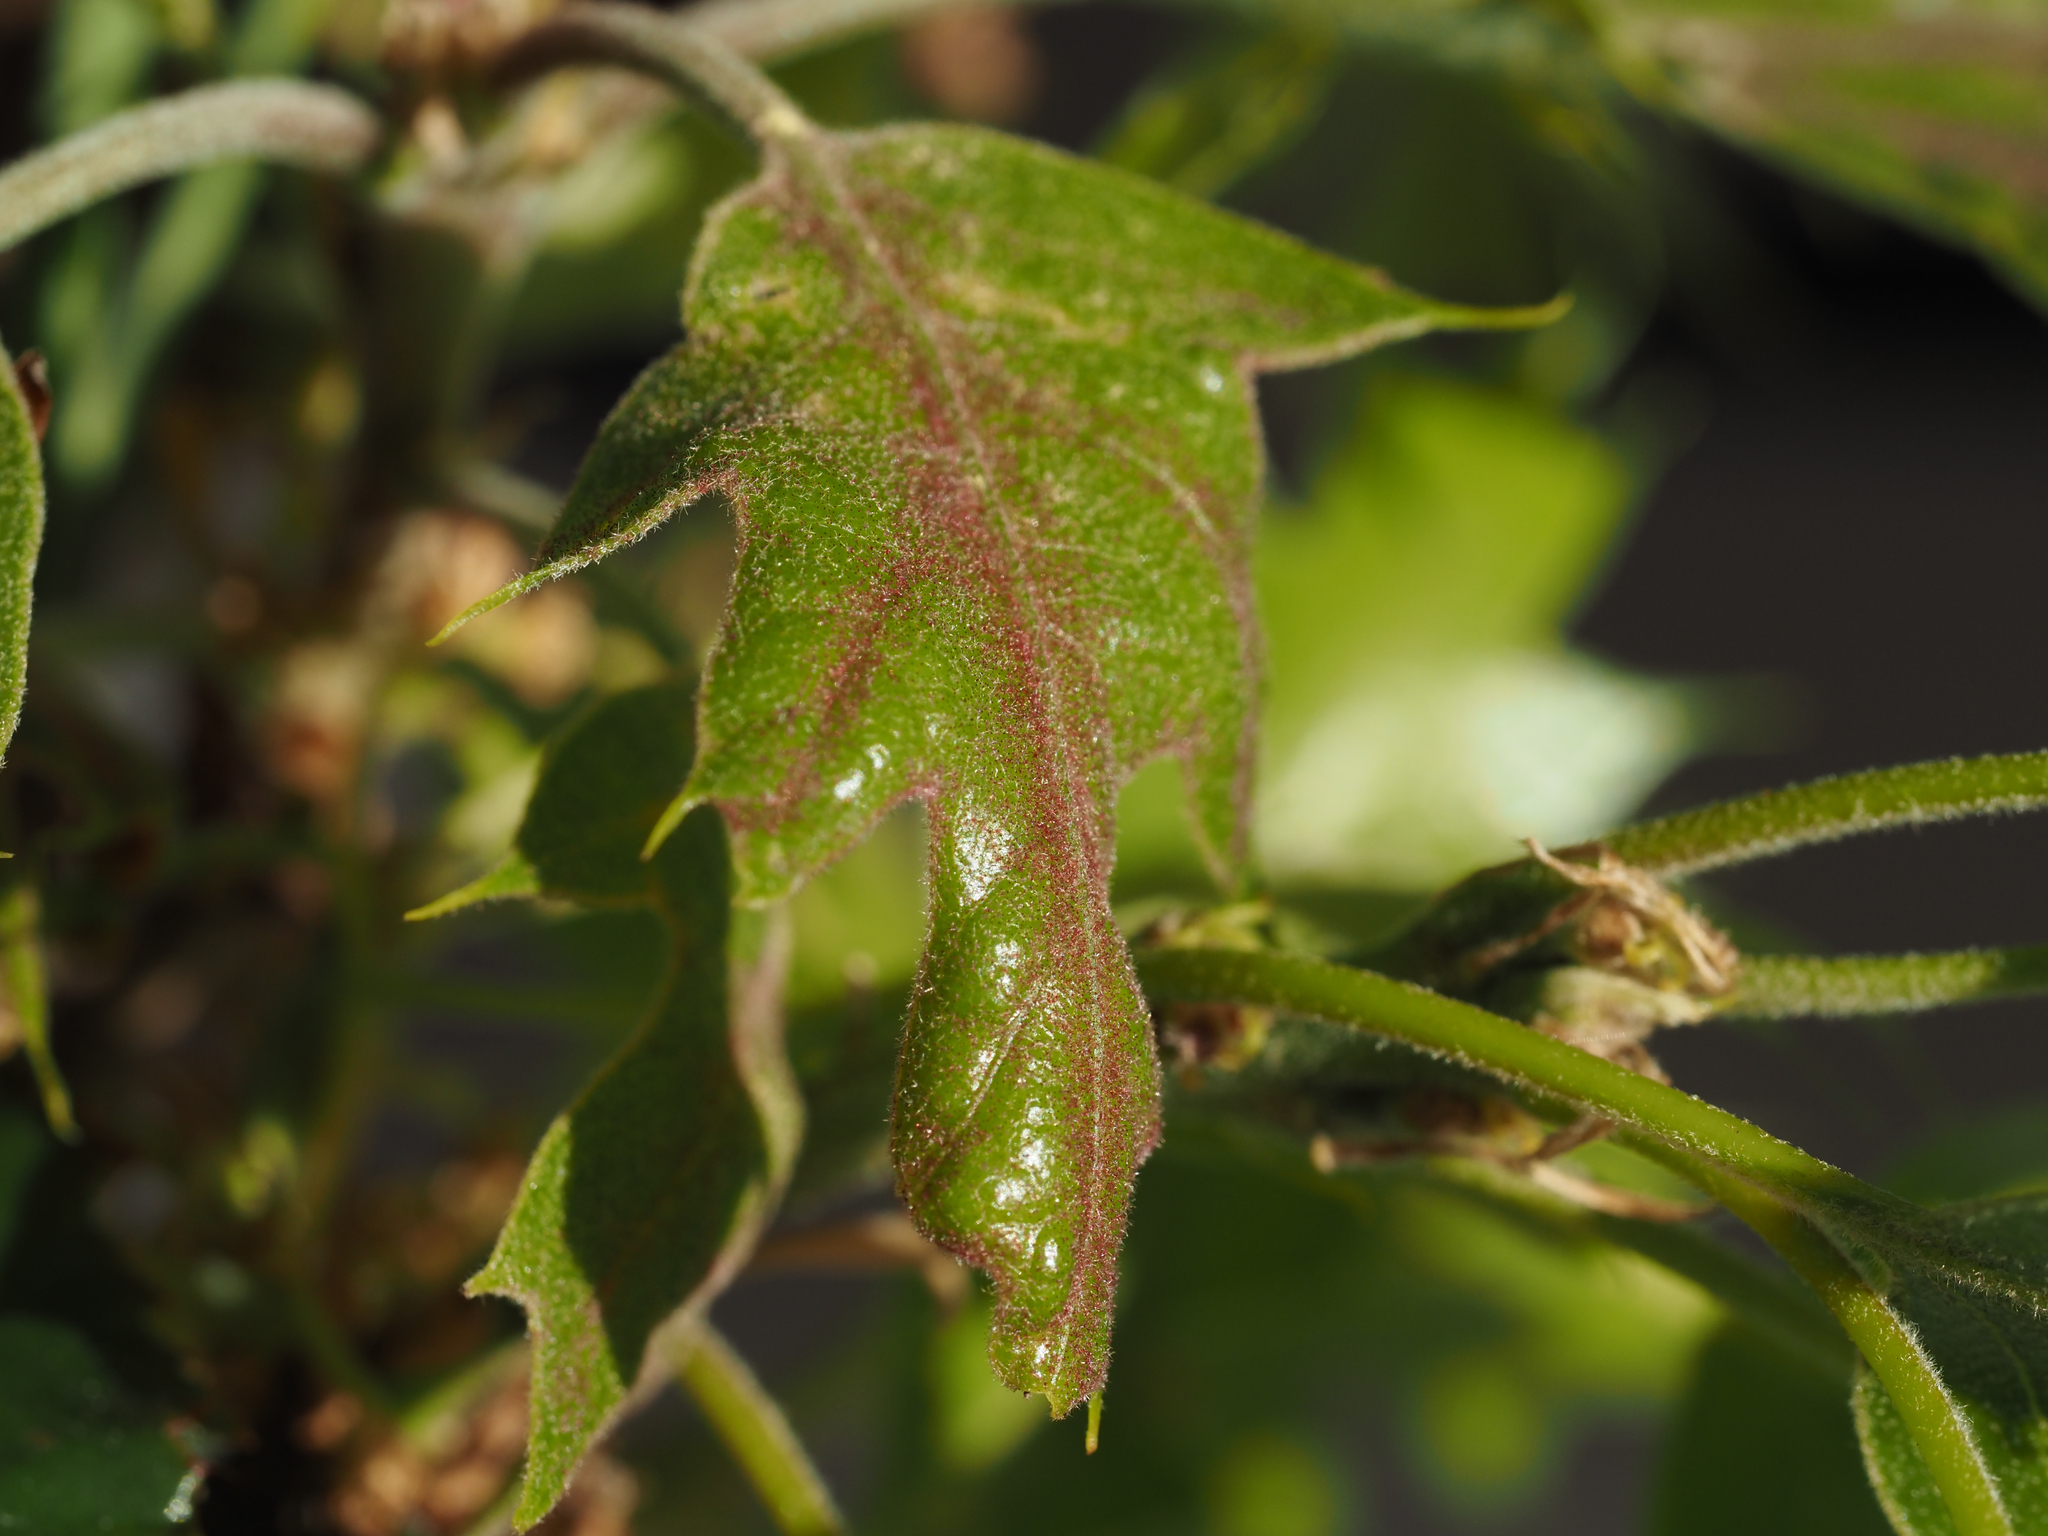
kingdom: Plantae
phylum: Tracheophyta
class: Magnoliopsida
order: Fagales
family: Fagaceae
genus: Quercus
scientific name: Quercus kelloggii
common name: California black oak
